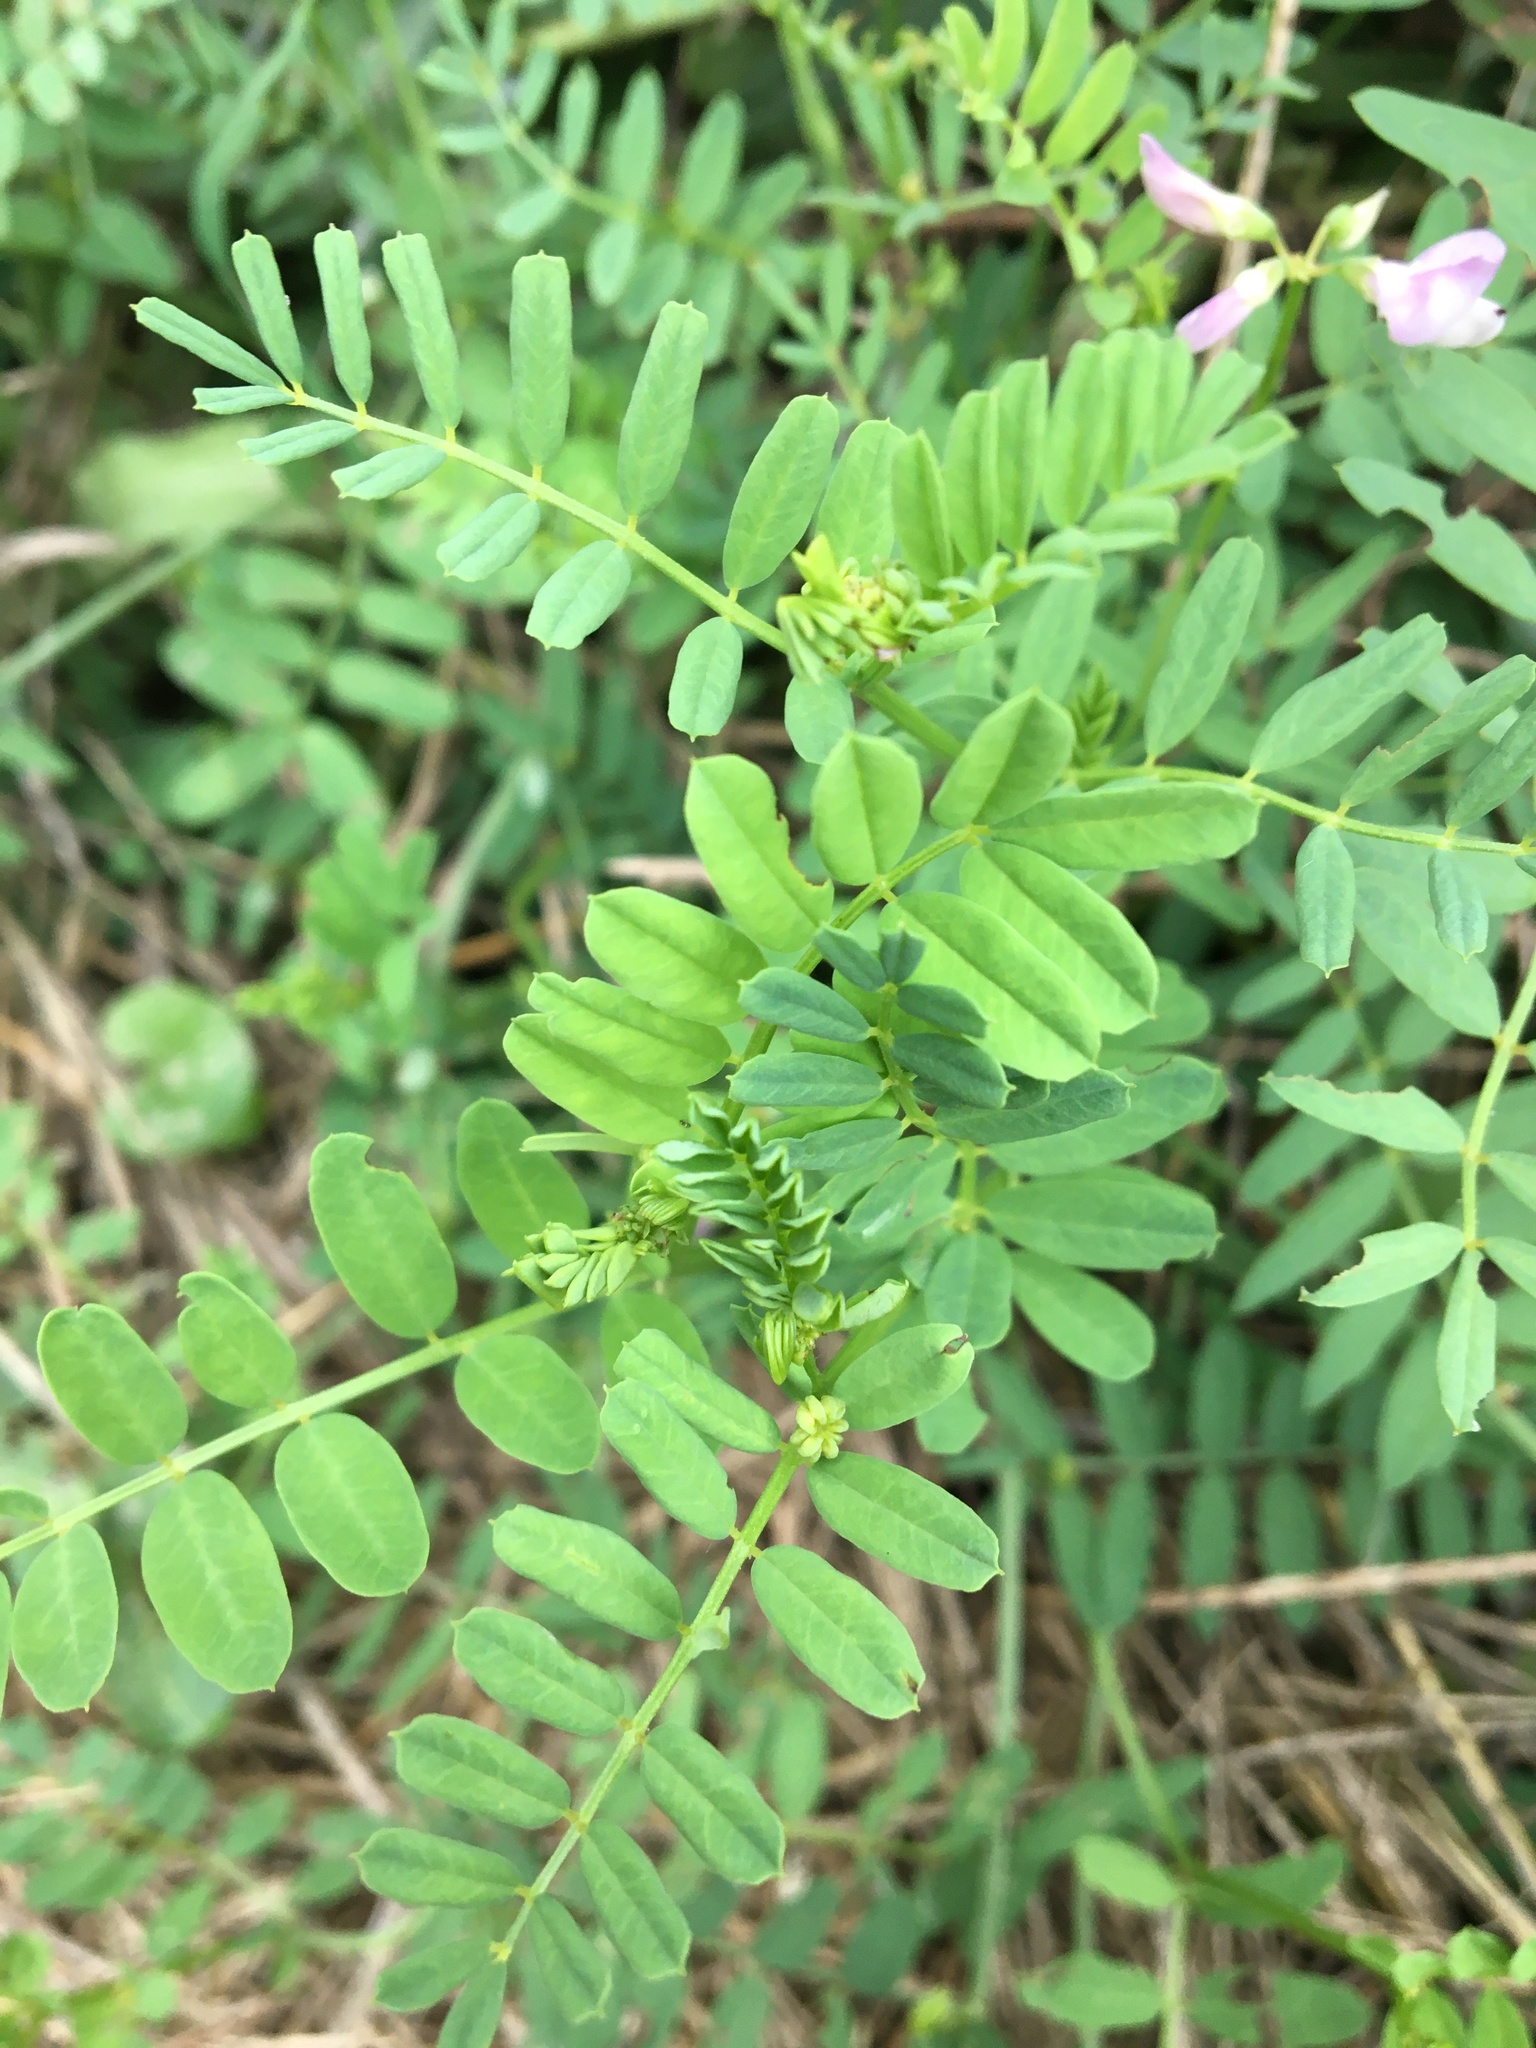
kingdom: Plantae
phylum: Tracheophyta
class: Magnoliopsida
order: Fabales
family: Fabaceae
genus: Coronilla
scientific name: Coronilla varia
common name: Crownvetch
